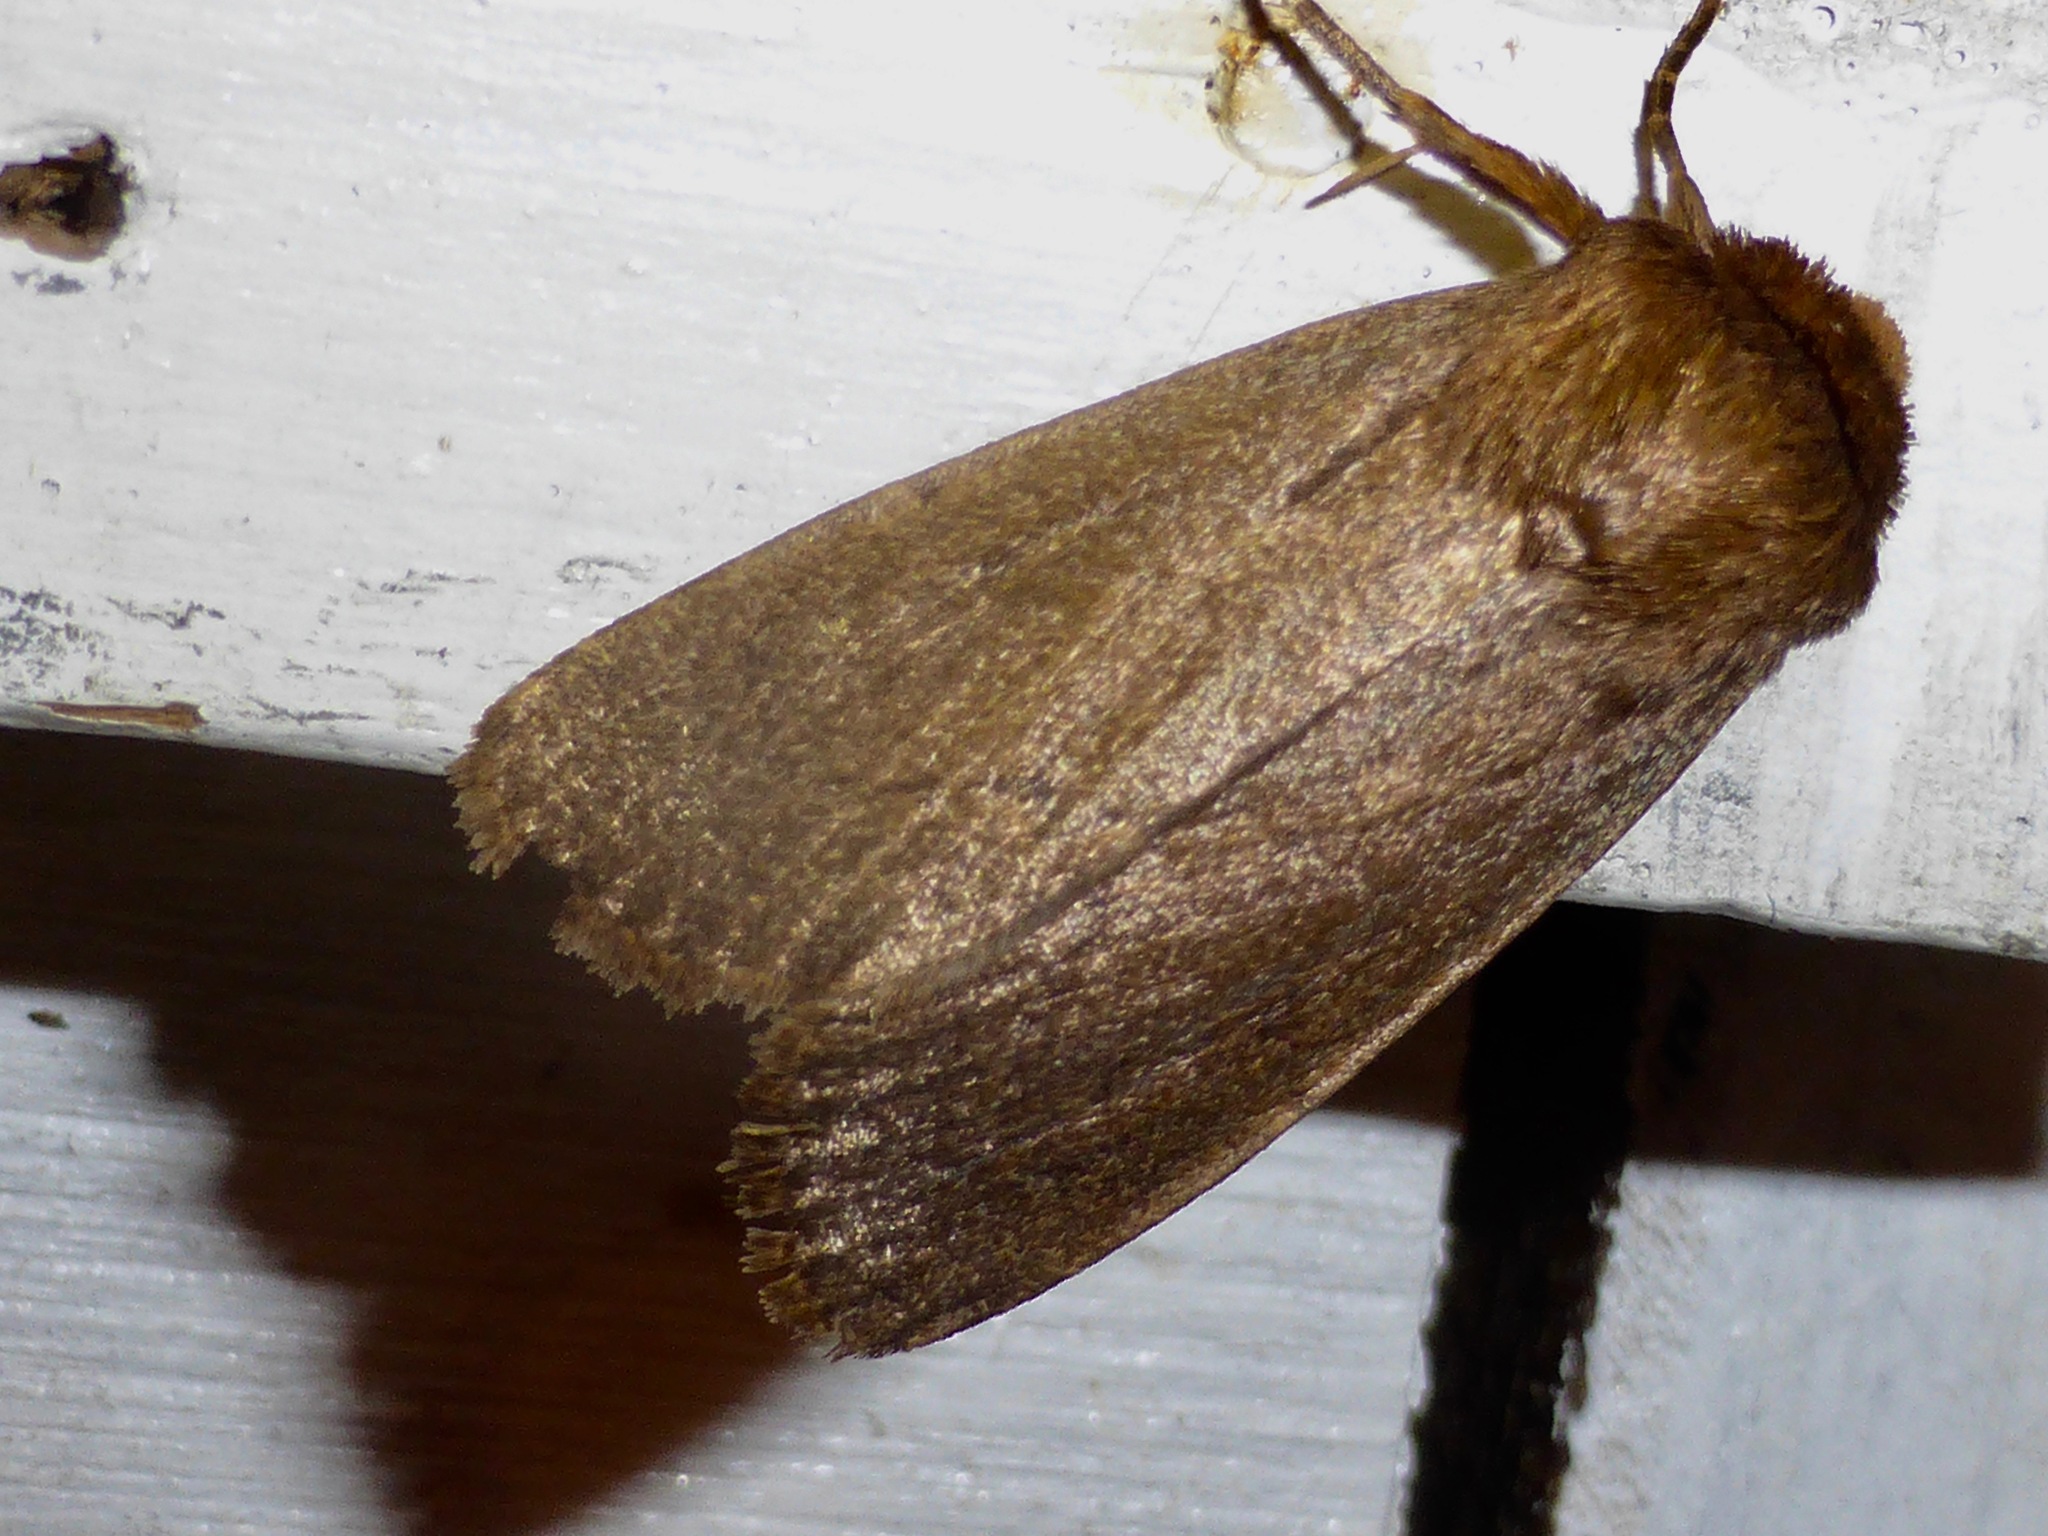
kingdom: Animalia
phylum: Arthropoda
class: Insecta
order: Lepidoptera
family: Noctuidae
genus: Bityla
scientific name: Bityla defigurata
